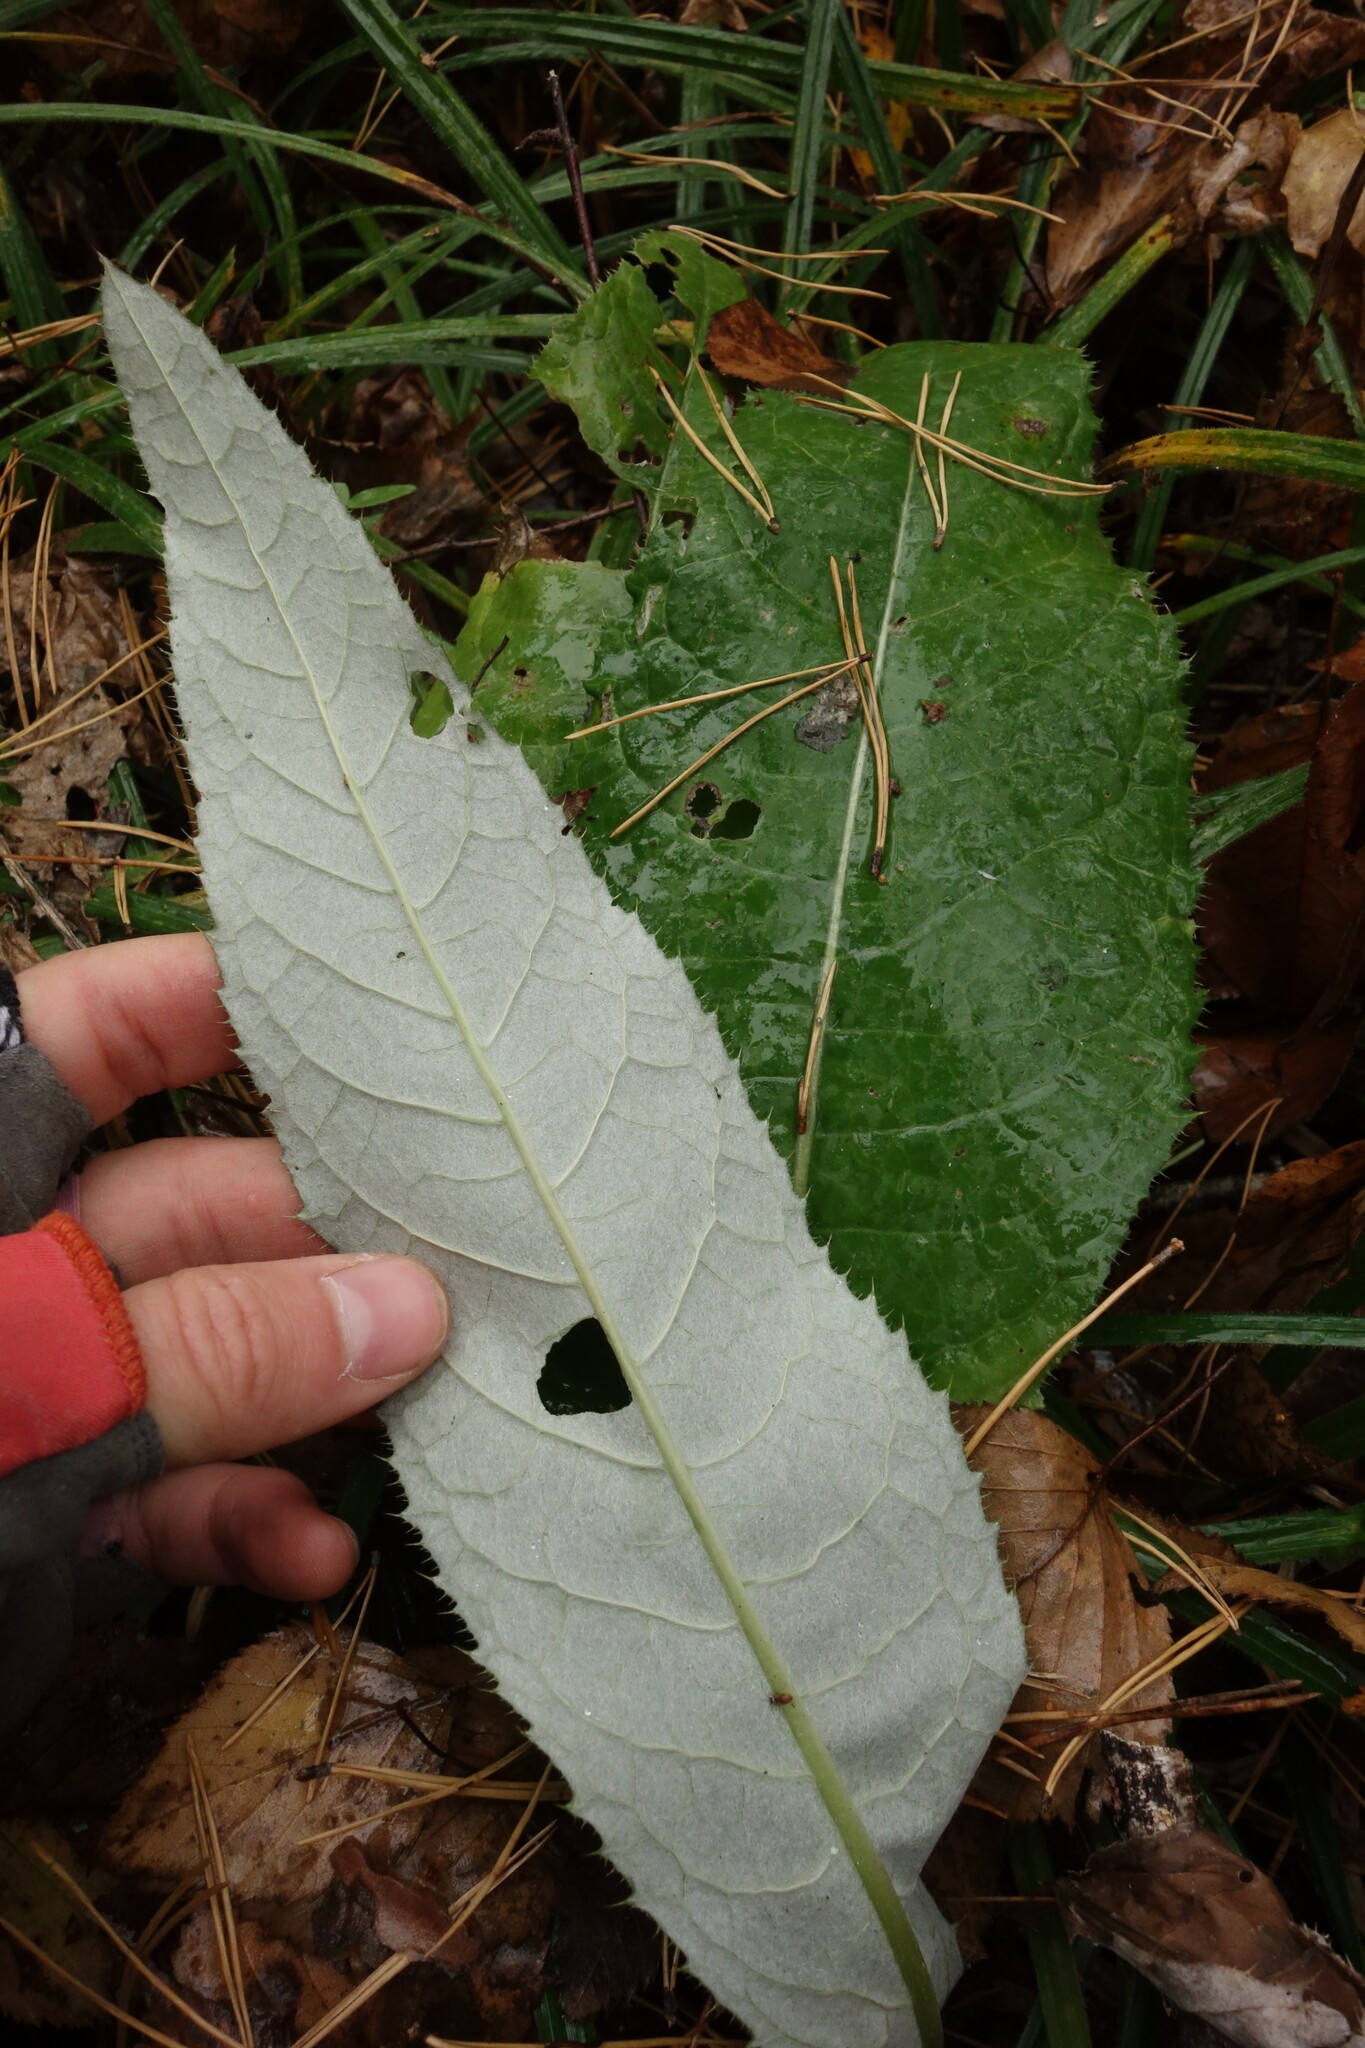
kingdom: Plantae
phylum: Tracheophyta
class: Magnoliopsida
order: Asterales
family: Asteraceae
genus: Cirsium
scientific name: Cirsium heterophyllum
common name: Melancholy thistle
